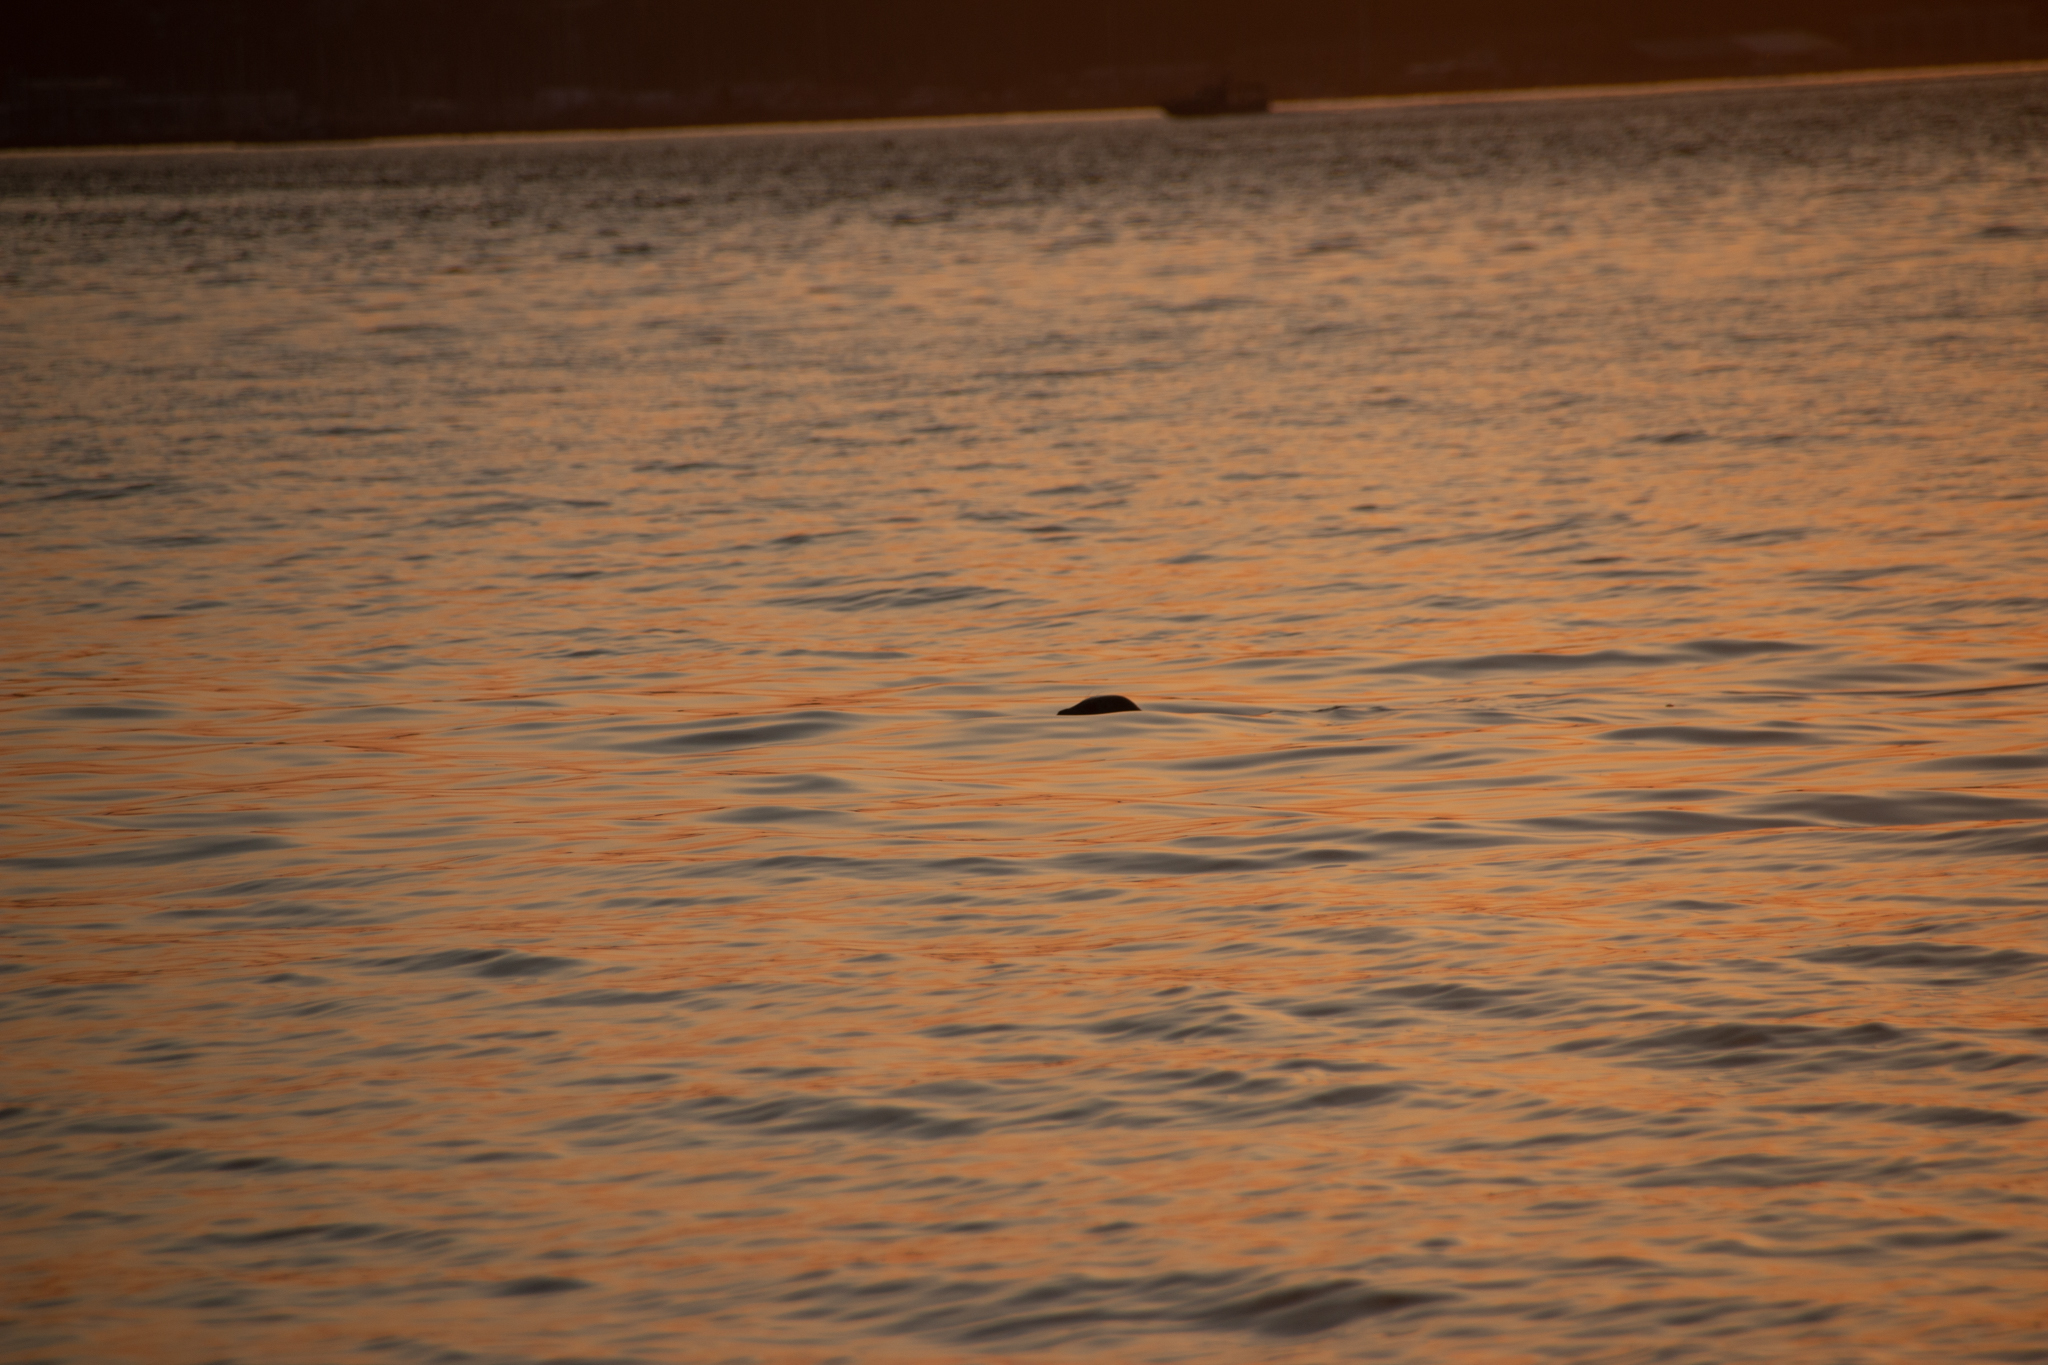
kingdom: Animalia
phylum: Chordata
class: Mammalia
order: Carnivora
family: Phocidae
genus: Phoca
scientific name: Phoca vitulina
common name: Harbor seal
